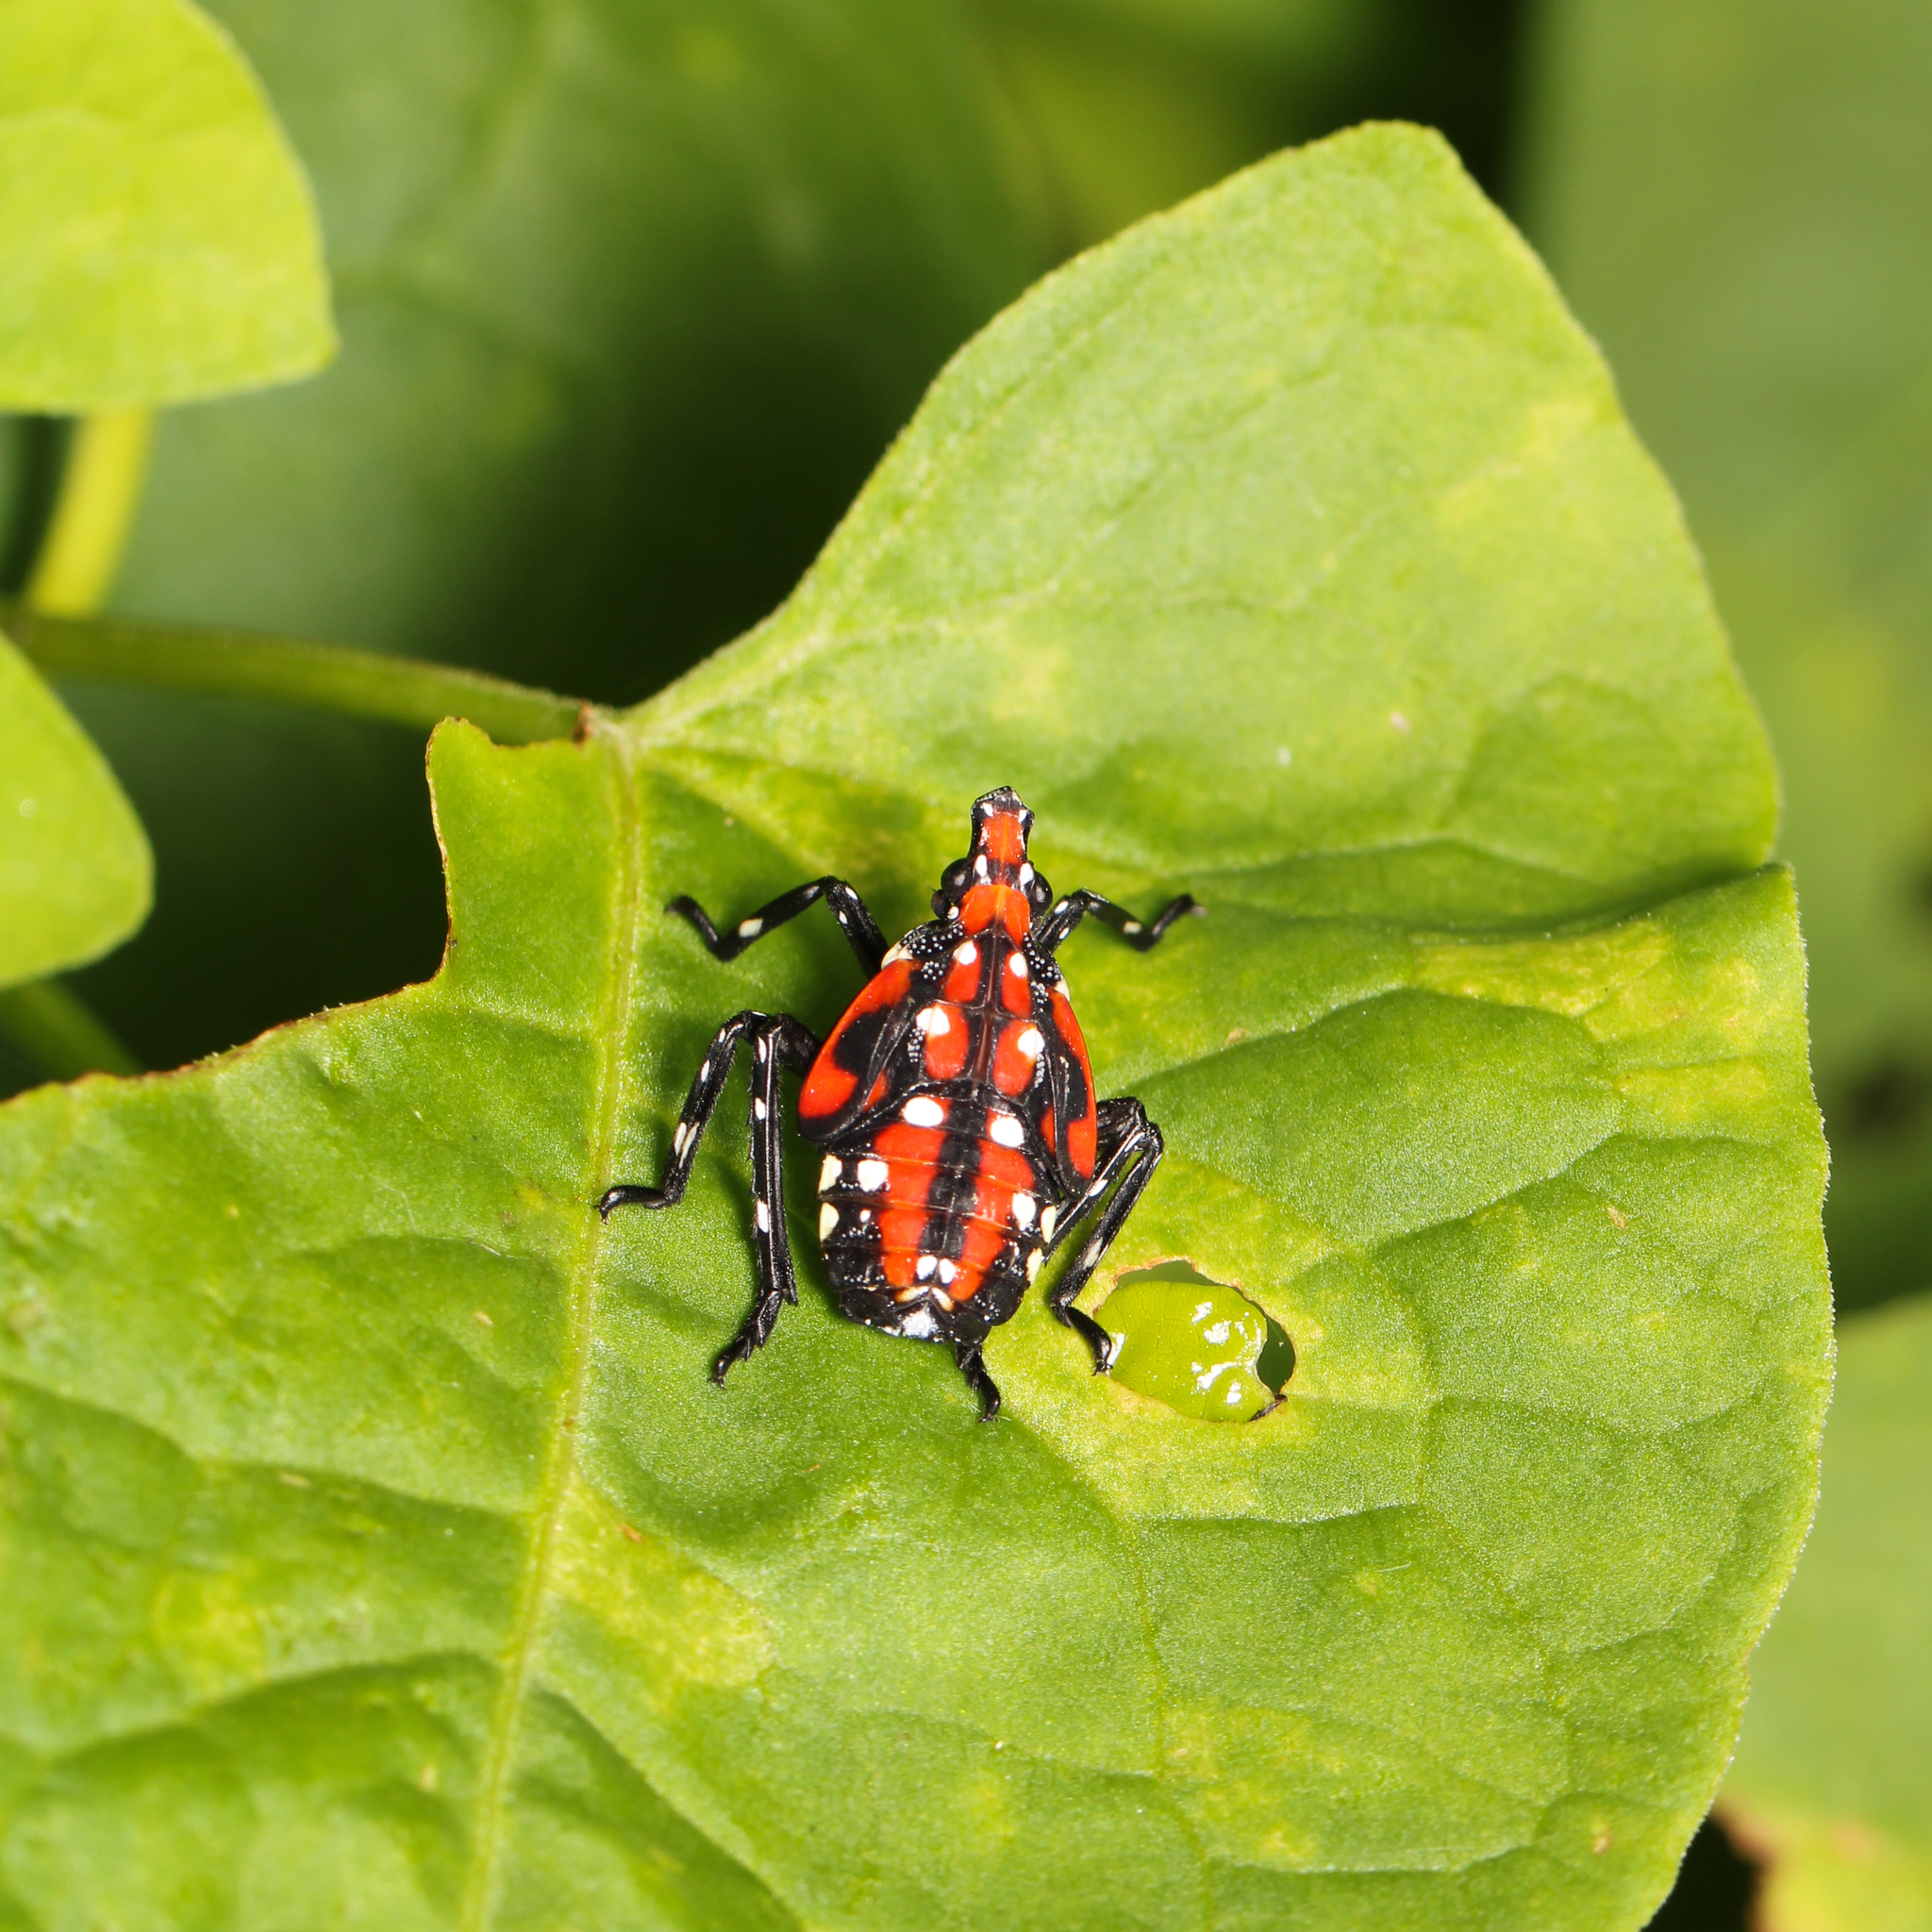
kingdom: Animalia
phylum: Arthropoda
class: Insecta
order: Hemiptera
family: Fulgoridae
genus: Lycorma
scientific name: Lycorma delicatula
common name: Spotted lanternfly
